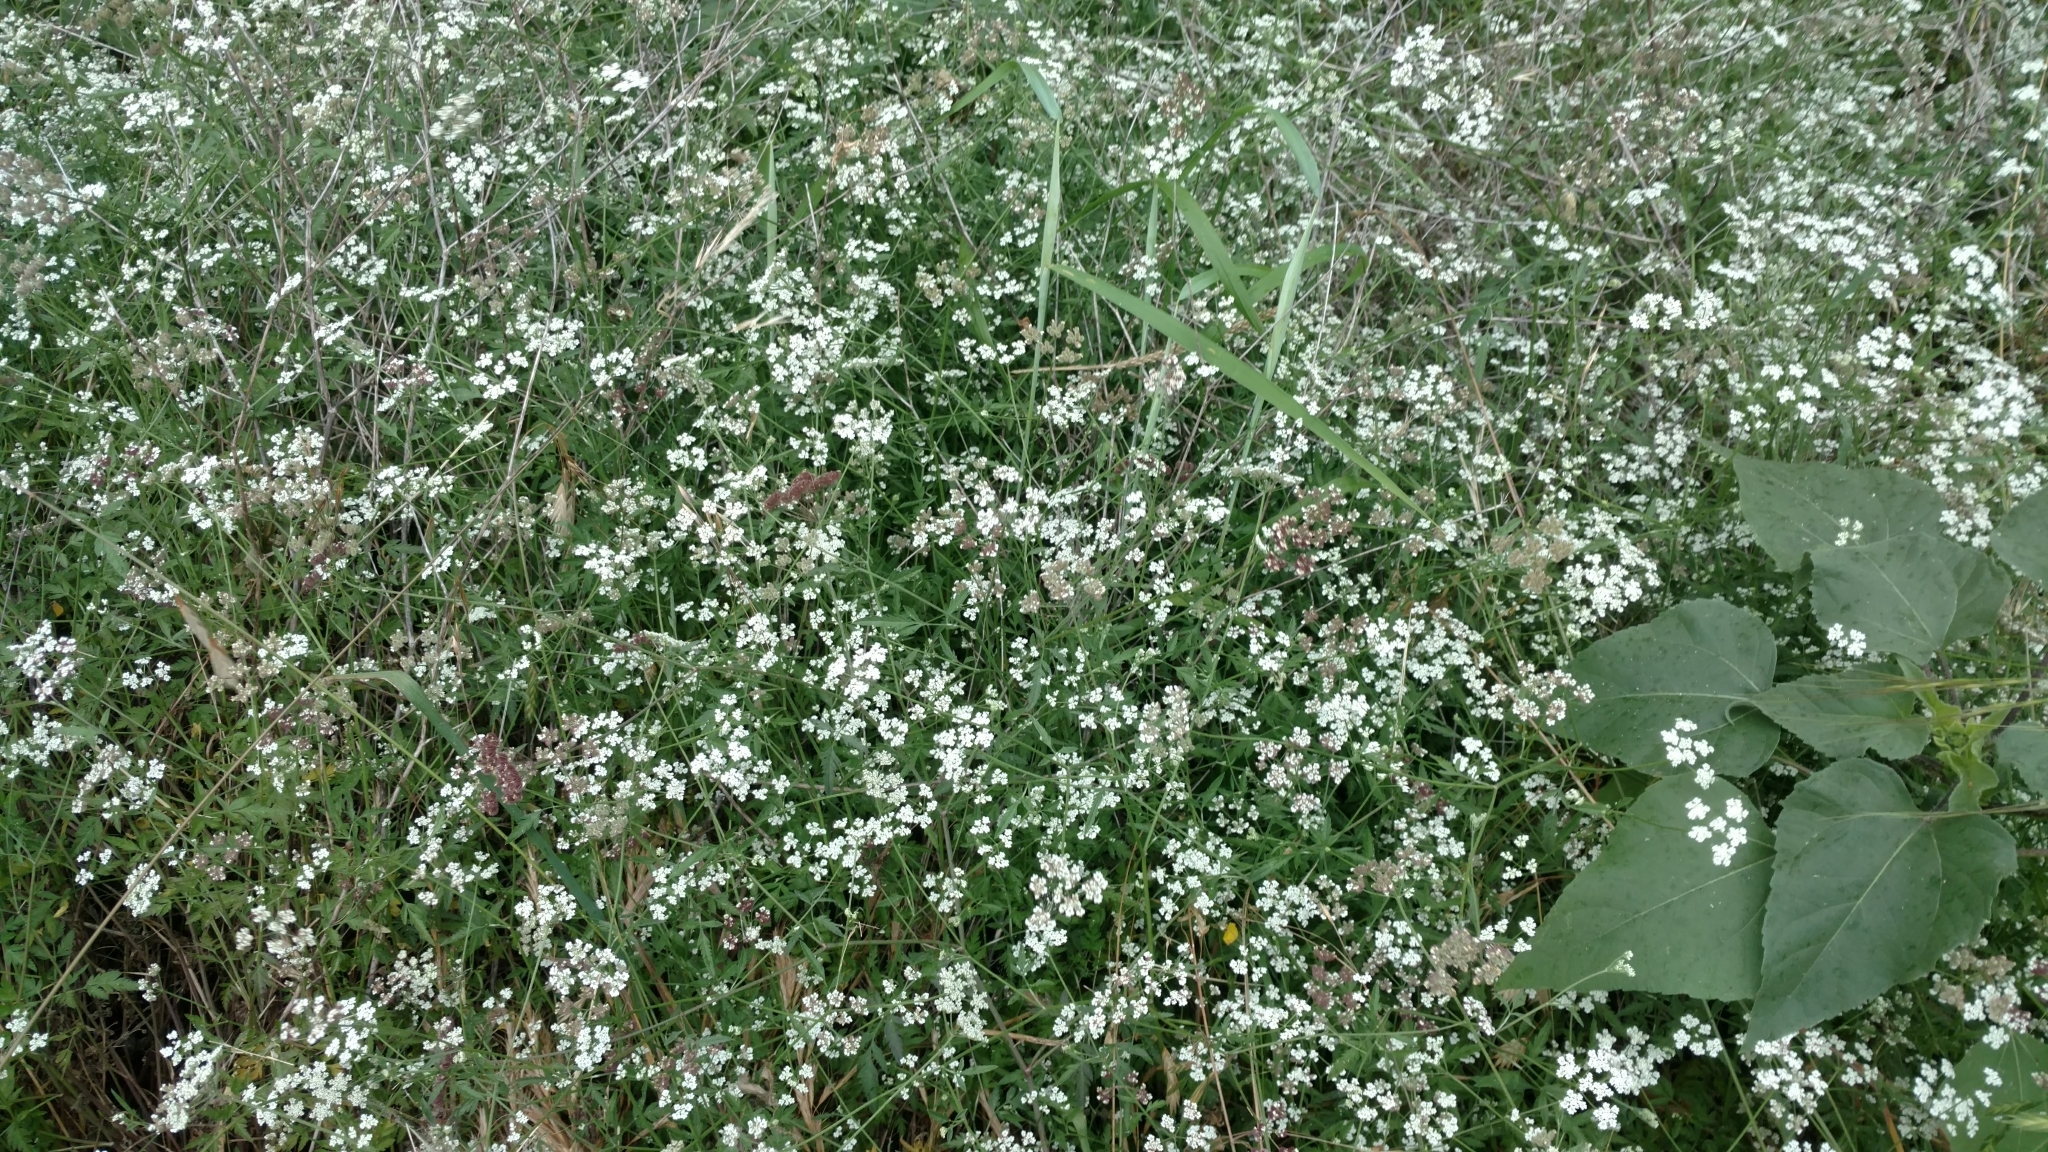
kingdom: Plantae
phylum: Tracheophyta
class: Magnoliopsida
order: Apiales
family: Apiaceae
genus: Torilis
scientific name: Torilis arvensis
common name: Spreading hedge-parsley
